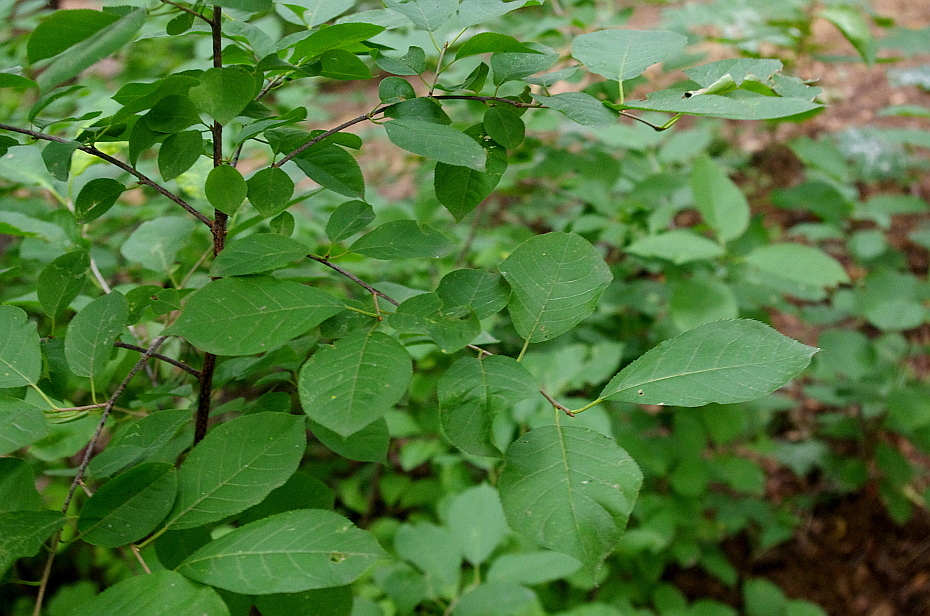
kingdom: Plantae
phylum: Tracheophyta
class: Magnoliopsida
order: Rosales
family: Rosaceae
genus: Prunus
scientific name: Prunus virginiana
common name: Chokecherry
